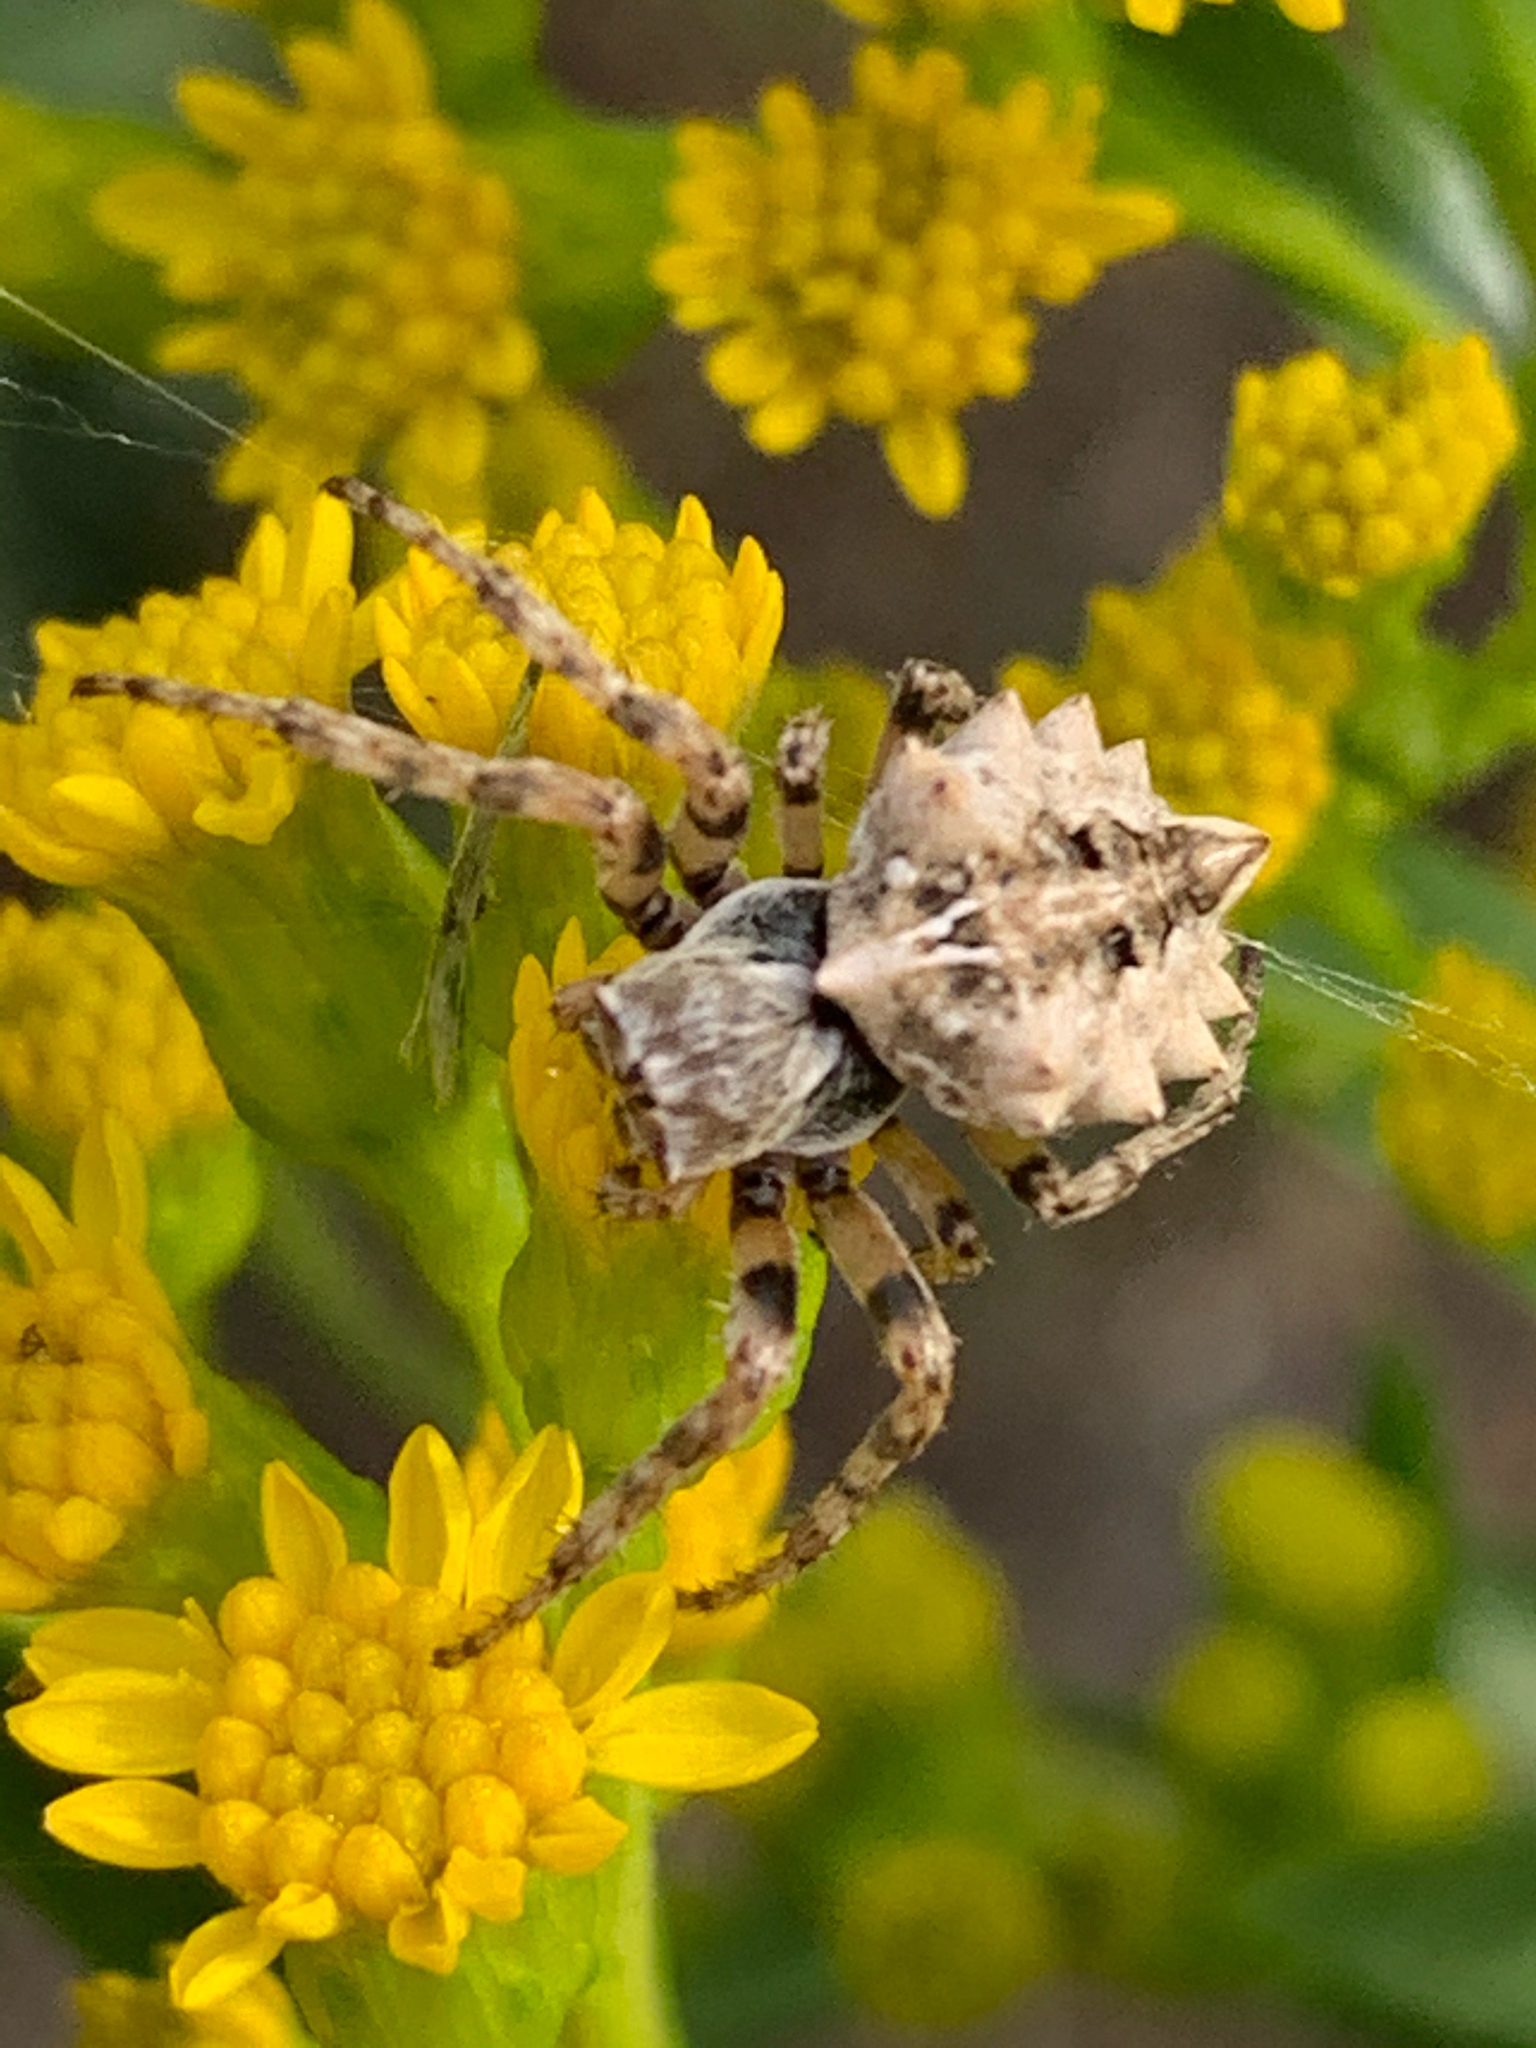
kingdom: Animalia
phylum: Arthropoda
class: Arachnida
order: Araneae
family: Araneidae
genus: Acanthepeira
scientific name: Acanthepeira stellata
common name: Starbellied orbweaver
